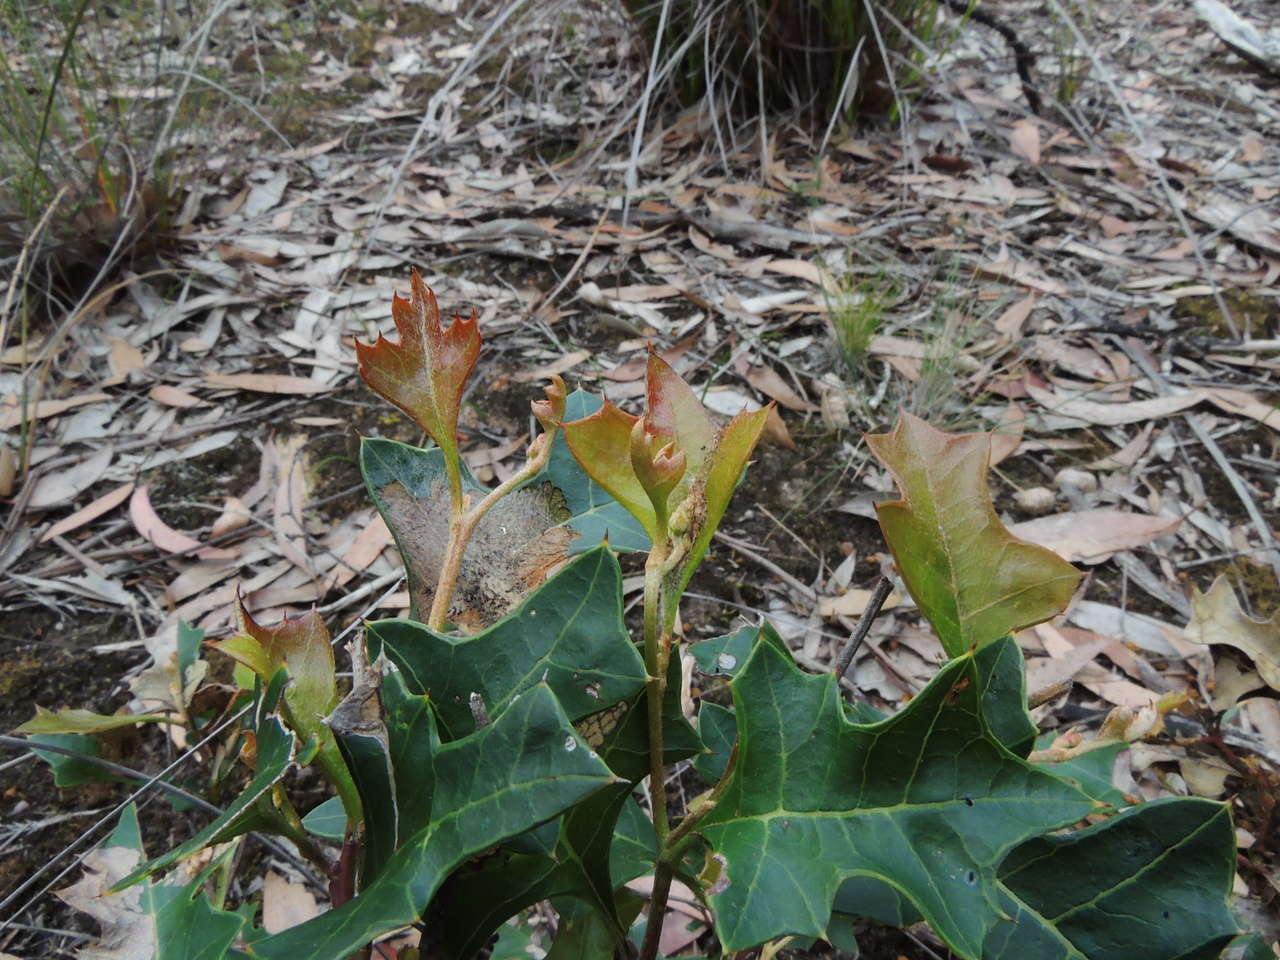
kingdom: Plantae
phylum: Tracheophyta
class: Magnoliopsida
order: Proteales
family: Proteaceae
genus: Grevillea
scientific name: Grevillea steiglitziana
